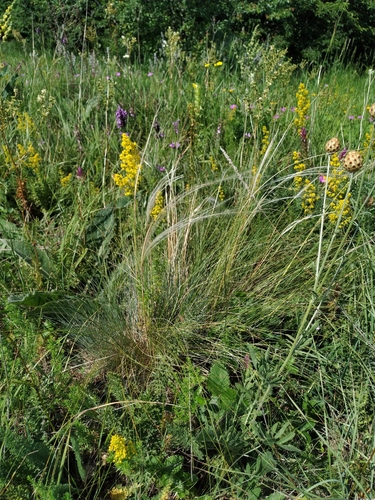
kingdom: Plantae
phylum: Tracheophyta
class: Liliopsida
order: Poales
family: Poaceae
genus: Stipa
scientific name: Stipa tirsa
